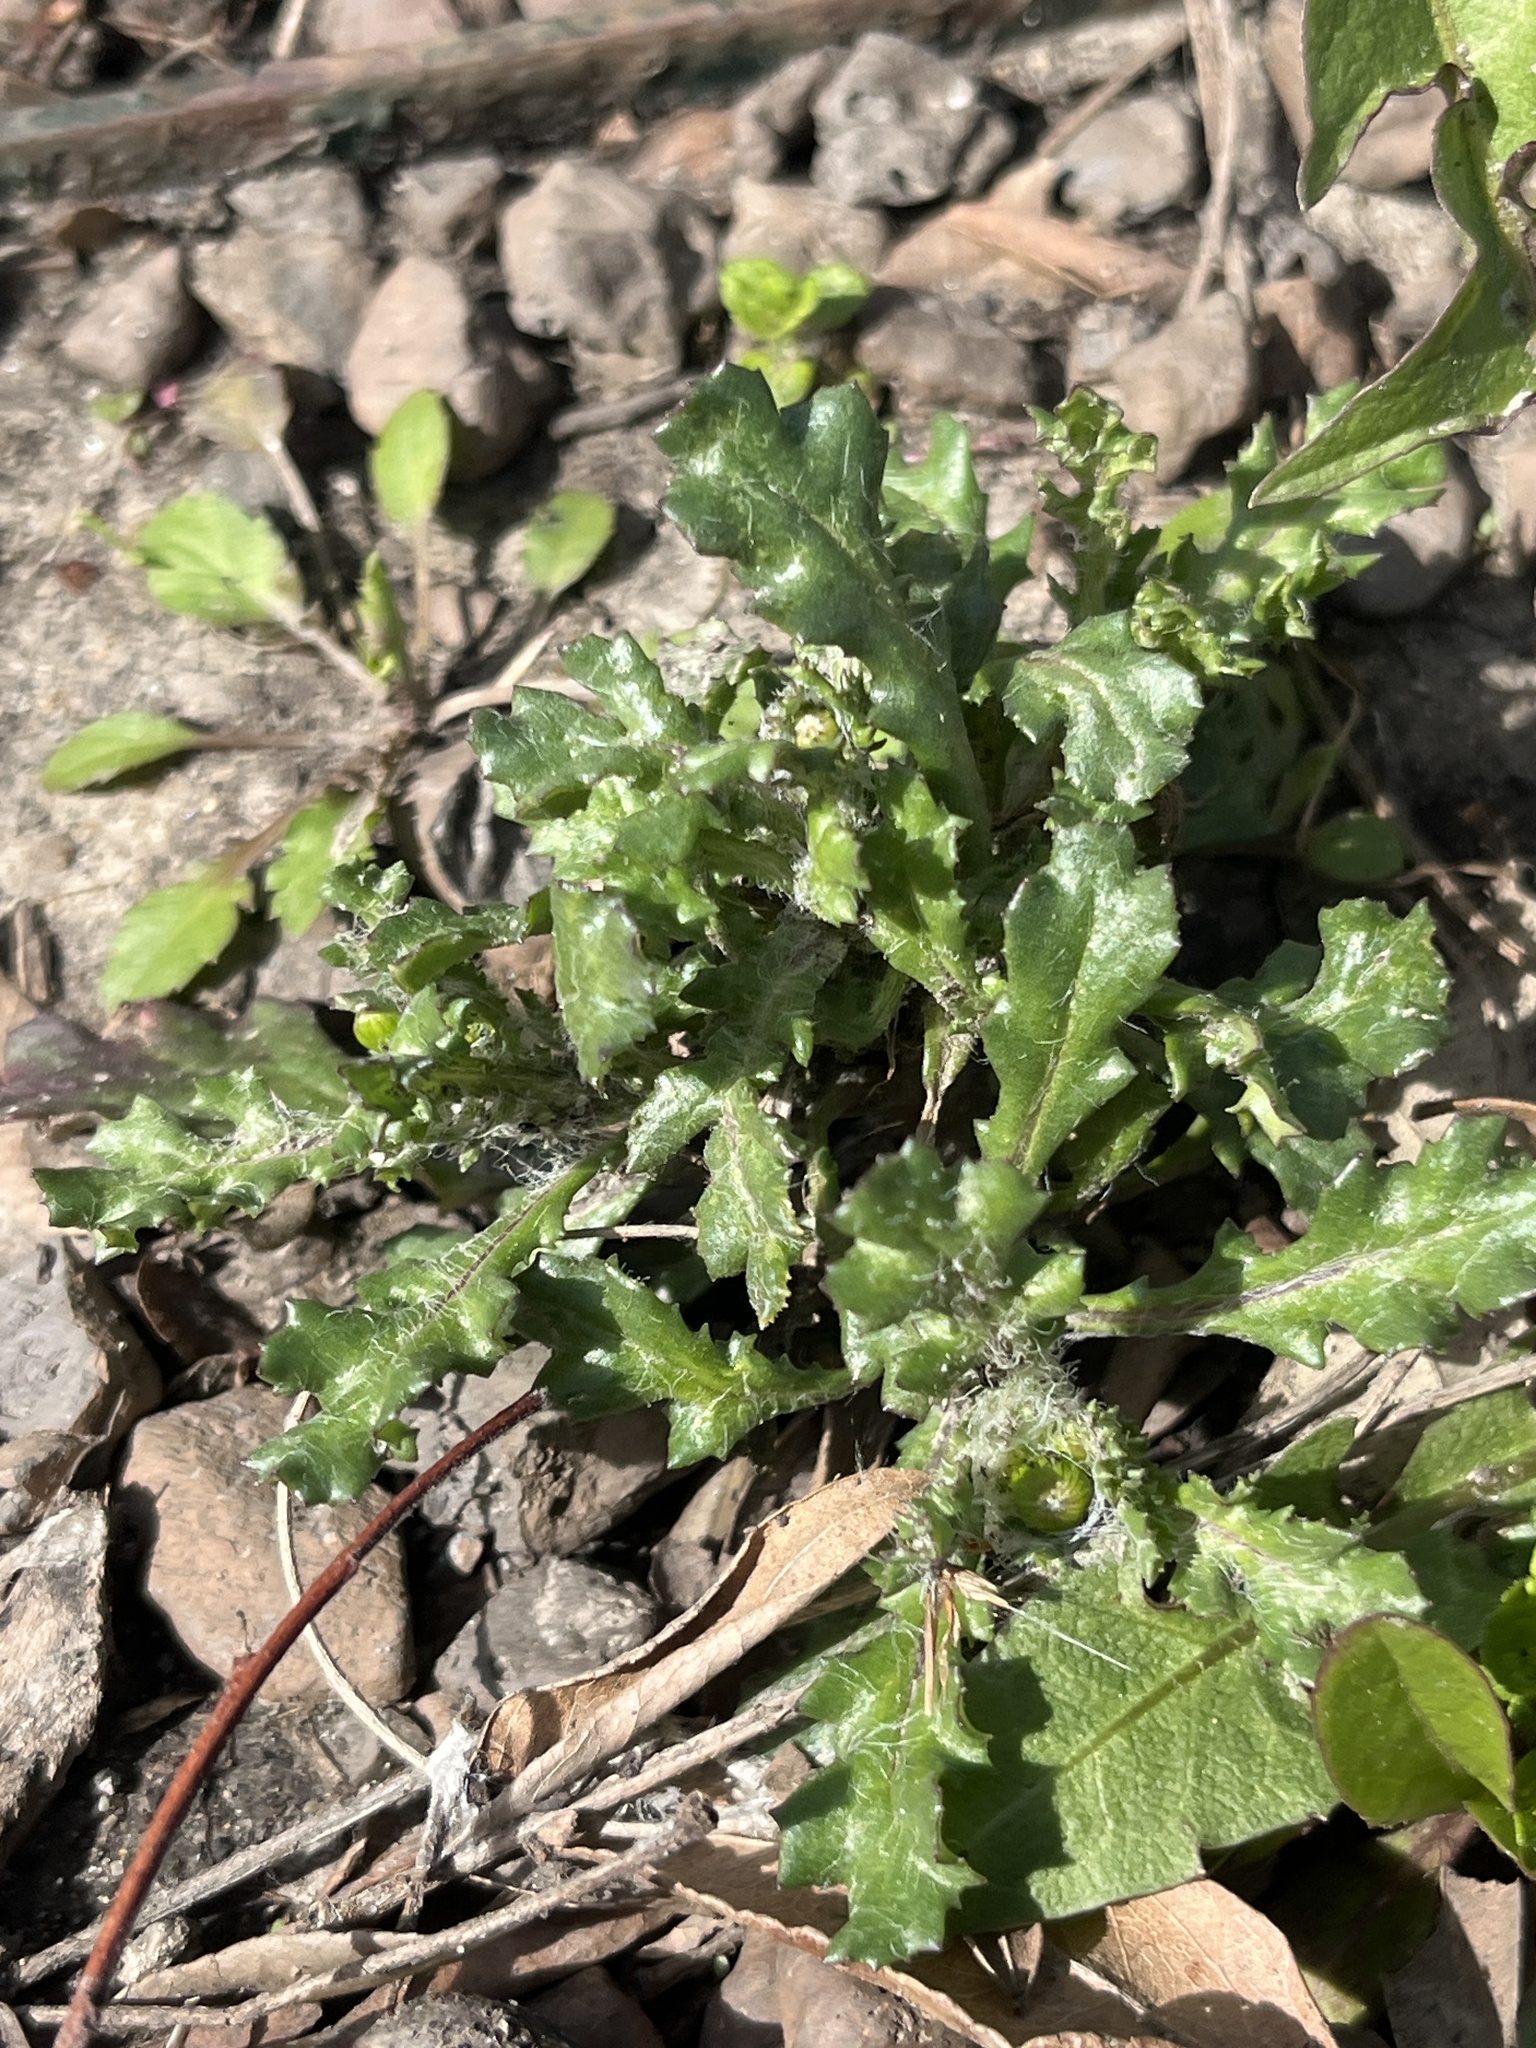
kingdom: Plantae
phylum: Tracheophyta
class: Magnoliopsida
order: Asterales
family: Asteraceae
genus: Senecio
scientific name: Senecio vulgaris
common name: Old-man-in-the-spring
